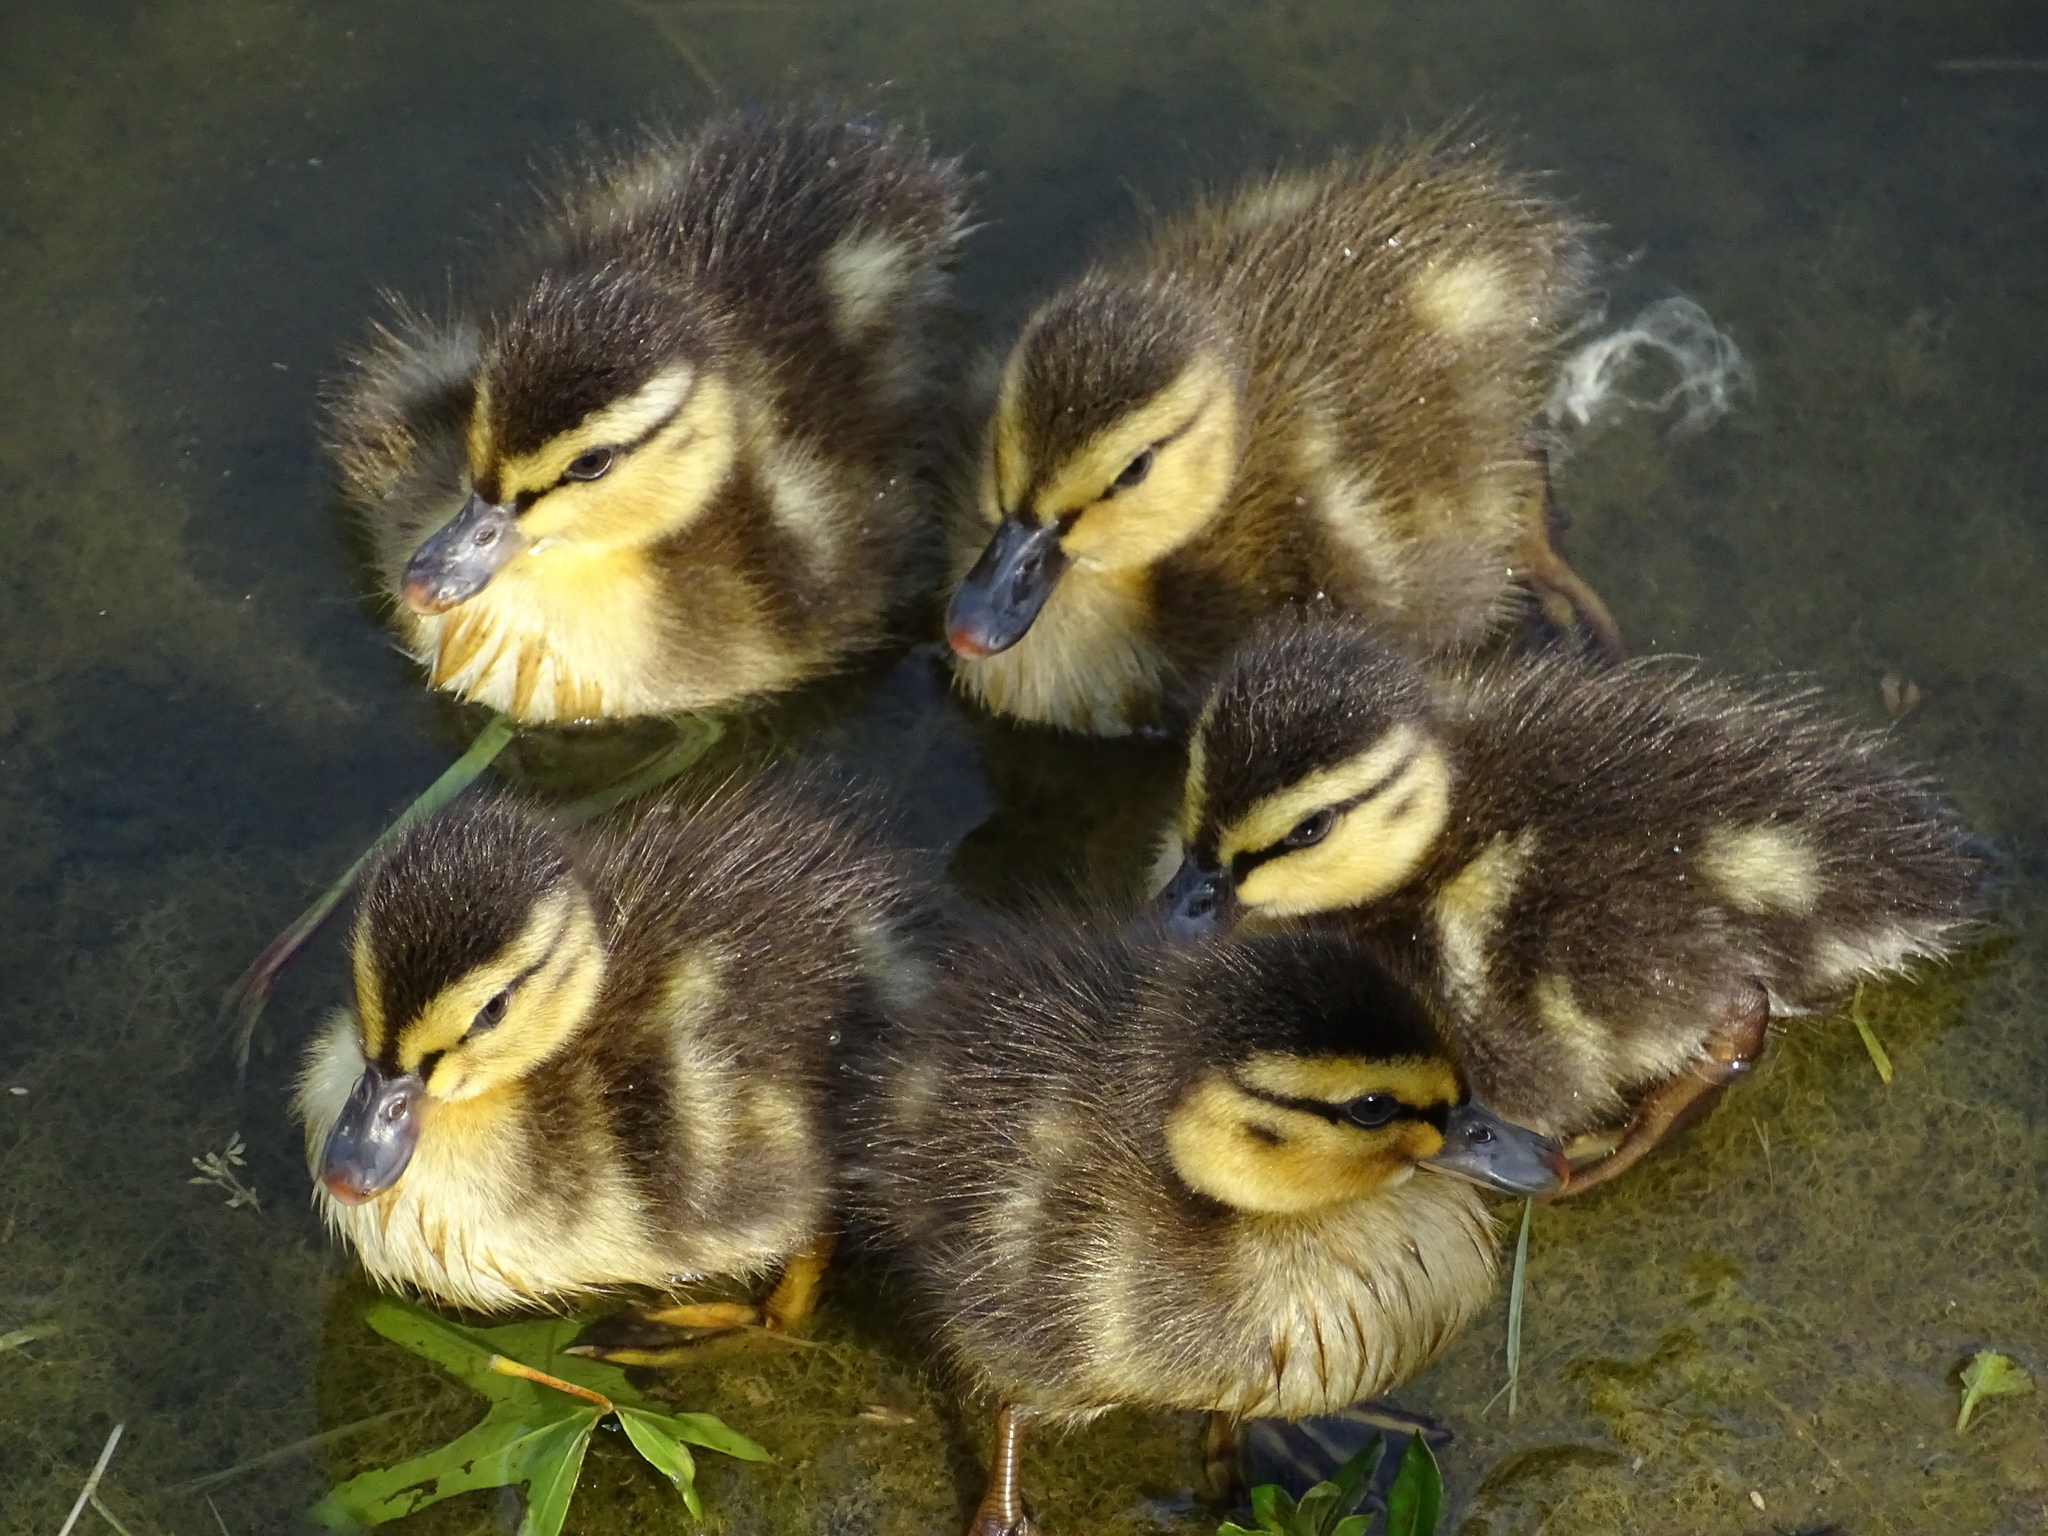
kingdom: Animalia
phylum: Chordata
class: Aves
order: Anseriformes
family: Anatidae
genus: Anas
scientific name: Anas platyrhynchos
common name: Mallard
